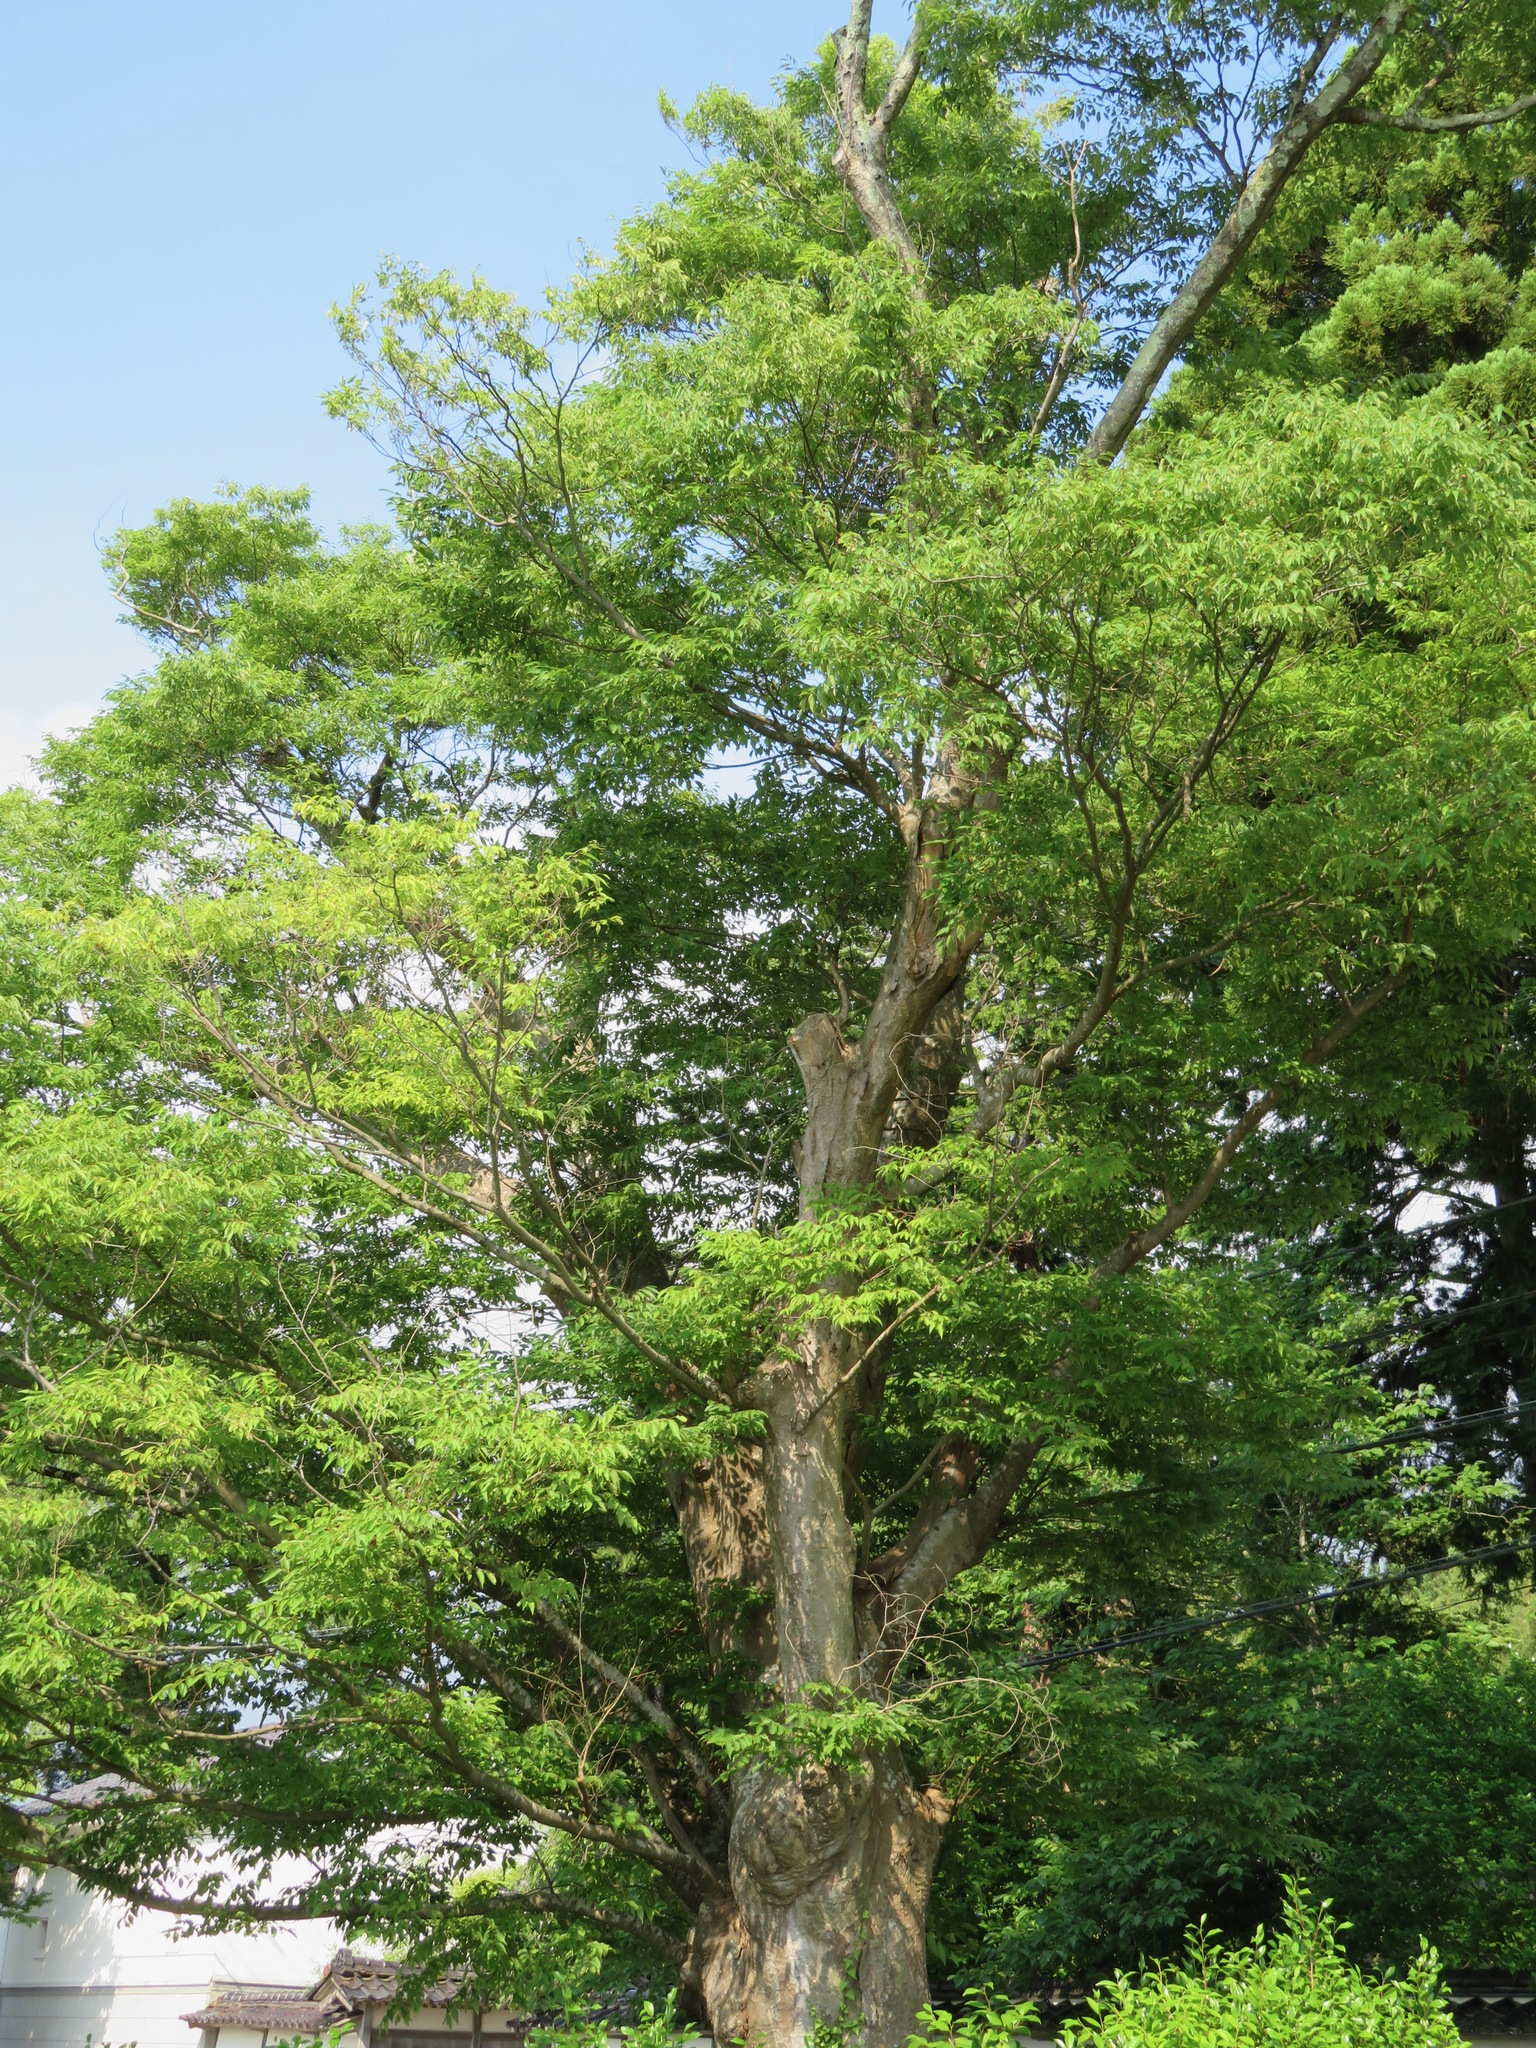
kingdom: Plantae
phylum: Tracheophyta
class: Magnoliopsida
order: Rosales
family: Ulmaceae
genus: Zelkova
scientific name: Zelkova serrata
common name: Japanese zelkova
